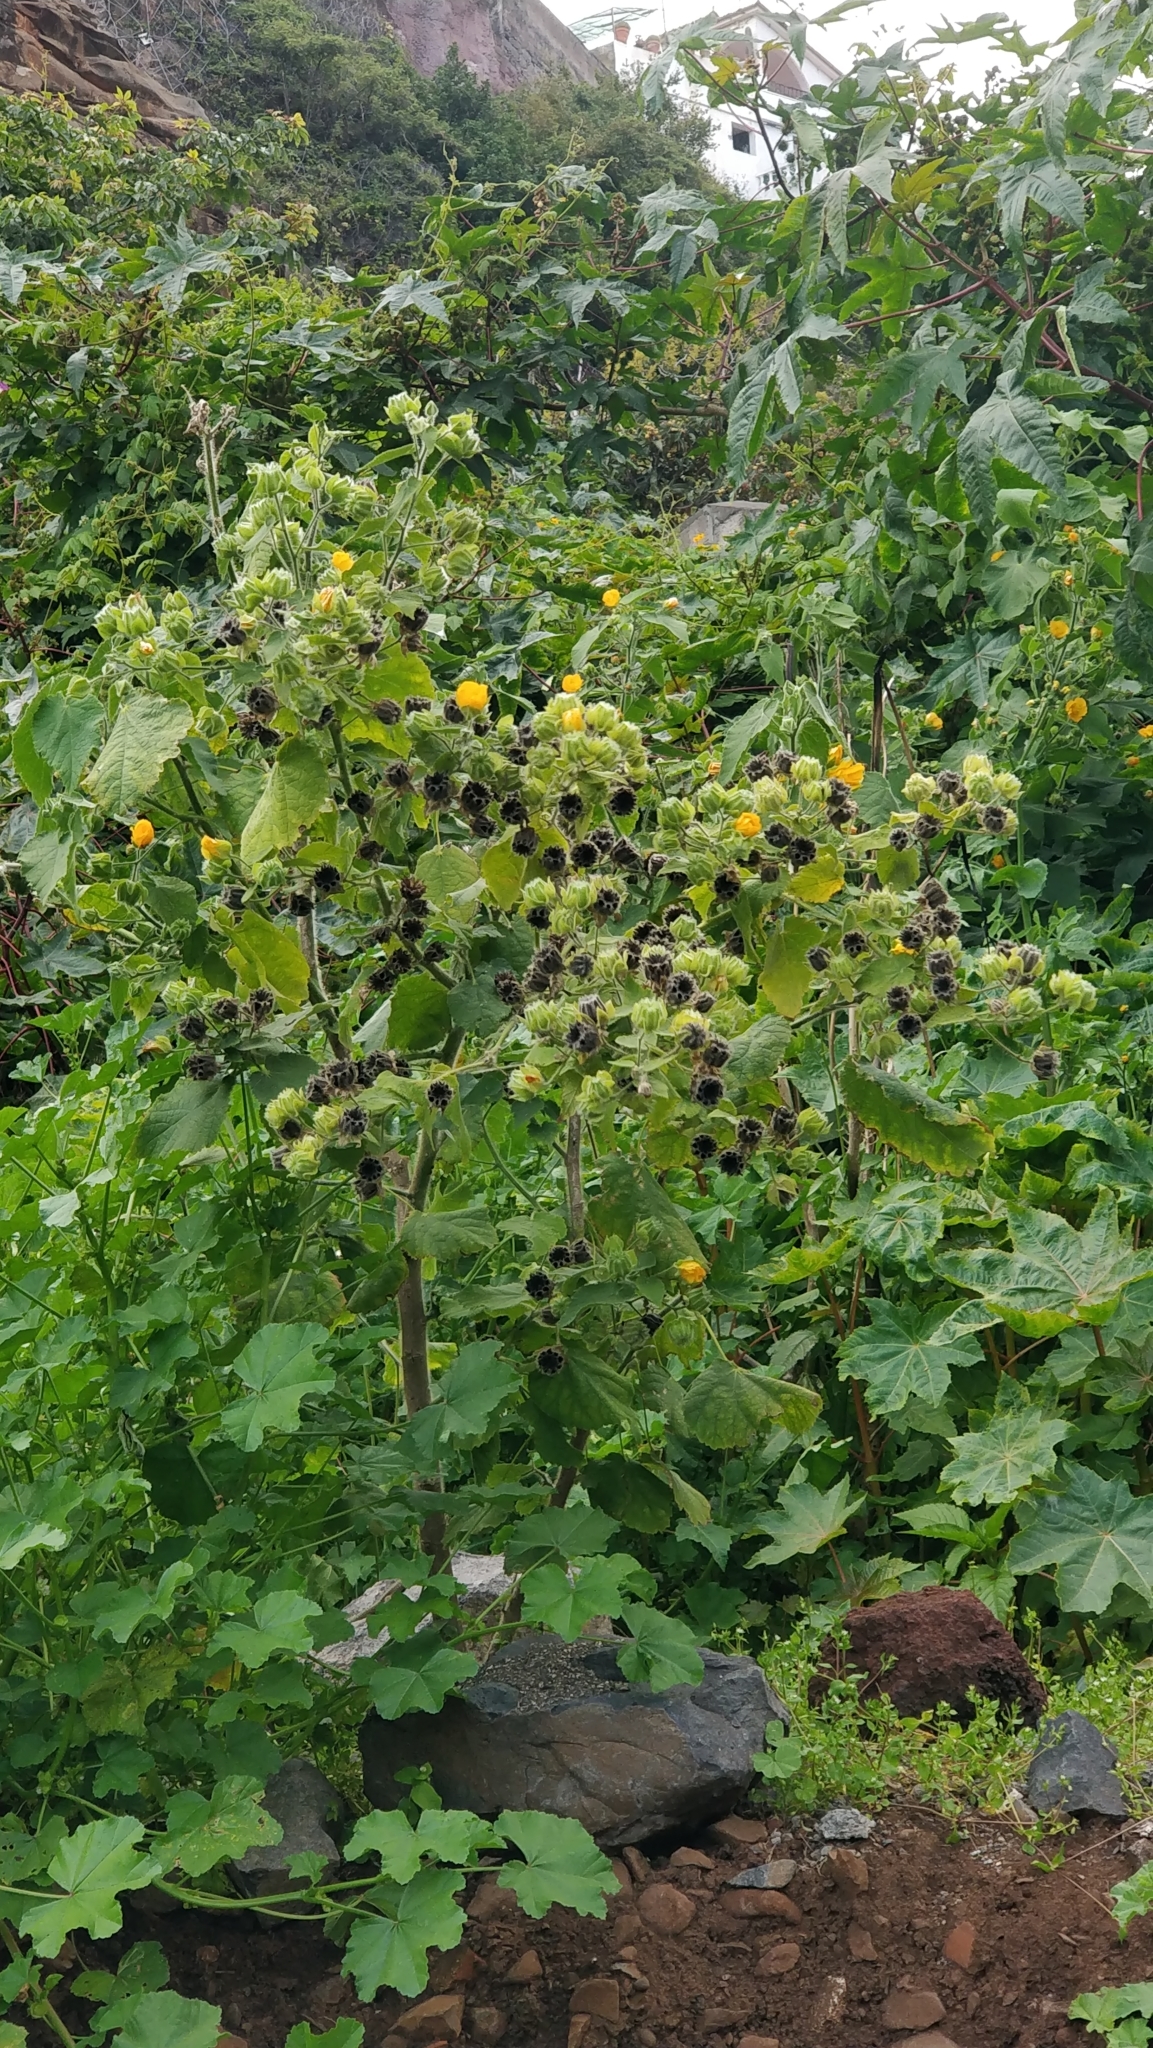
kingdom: Plantae
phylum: Tracheophyta
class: Magnoliopsida
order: Malvales
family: Malvaceae
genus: Abutilon
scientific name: Abutilon grandifolium
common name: Hairy abutilon
